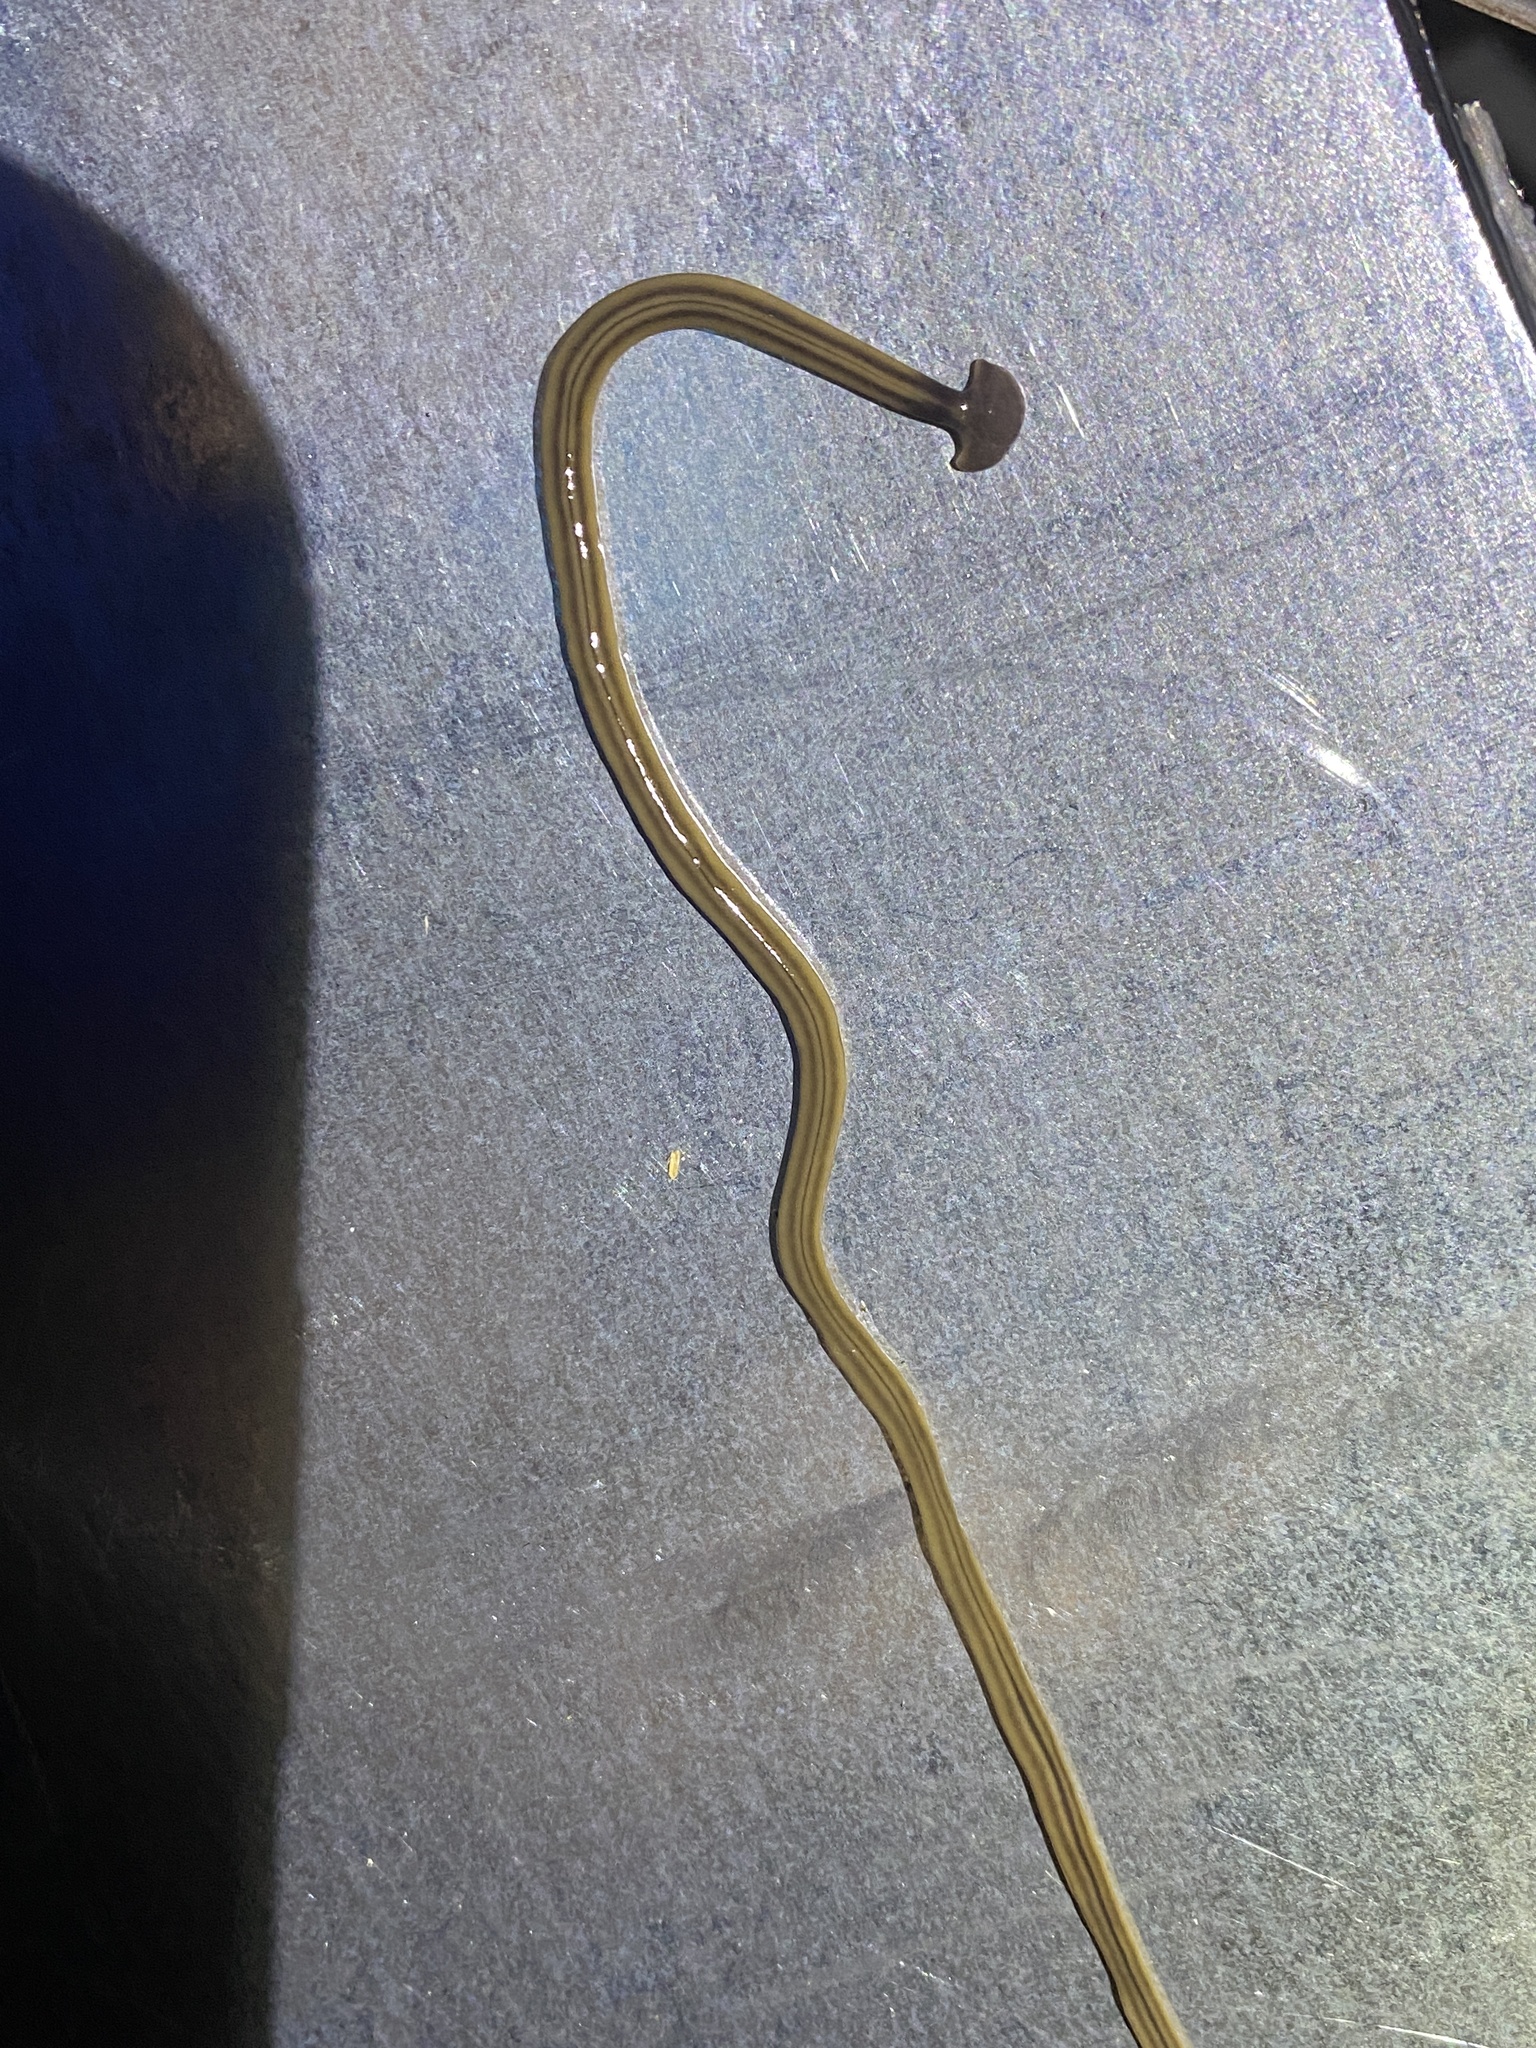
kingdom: Animalia
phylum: Platyhelminthes
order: Tricladida
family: Geoplanidae
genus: Bipalium
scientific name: Bipalium kewense
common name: Hammerhead flatworm
